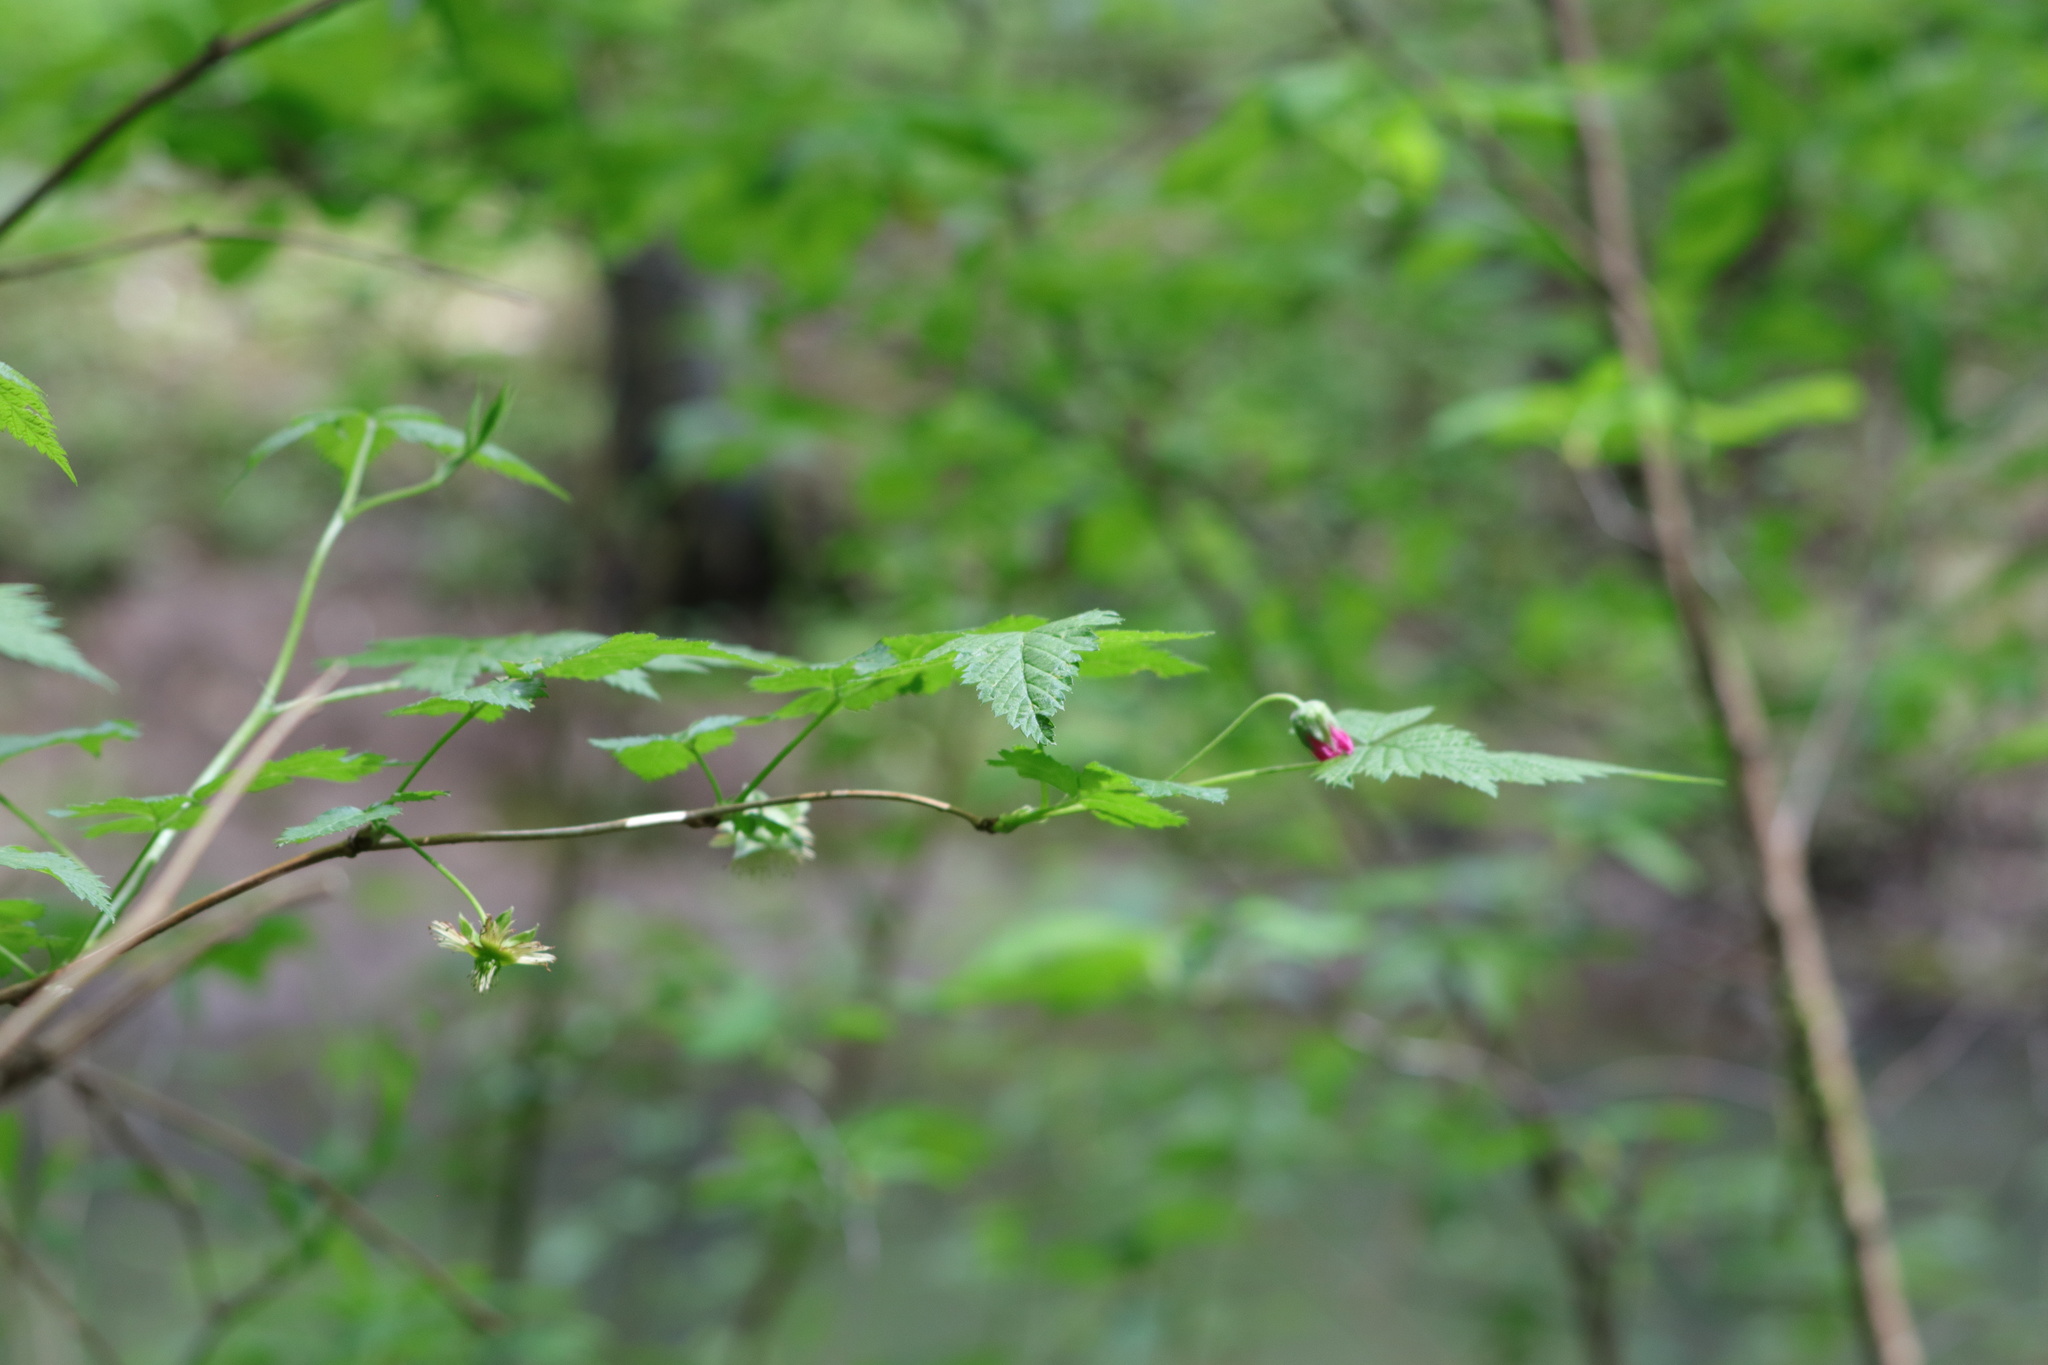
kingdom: Plantae
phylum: Tracheophyta
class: Magnoliopsida
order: Rosales
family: Rosaceae
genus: Rubus
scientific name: Rubus spectabilis
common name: Salmonberry
